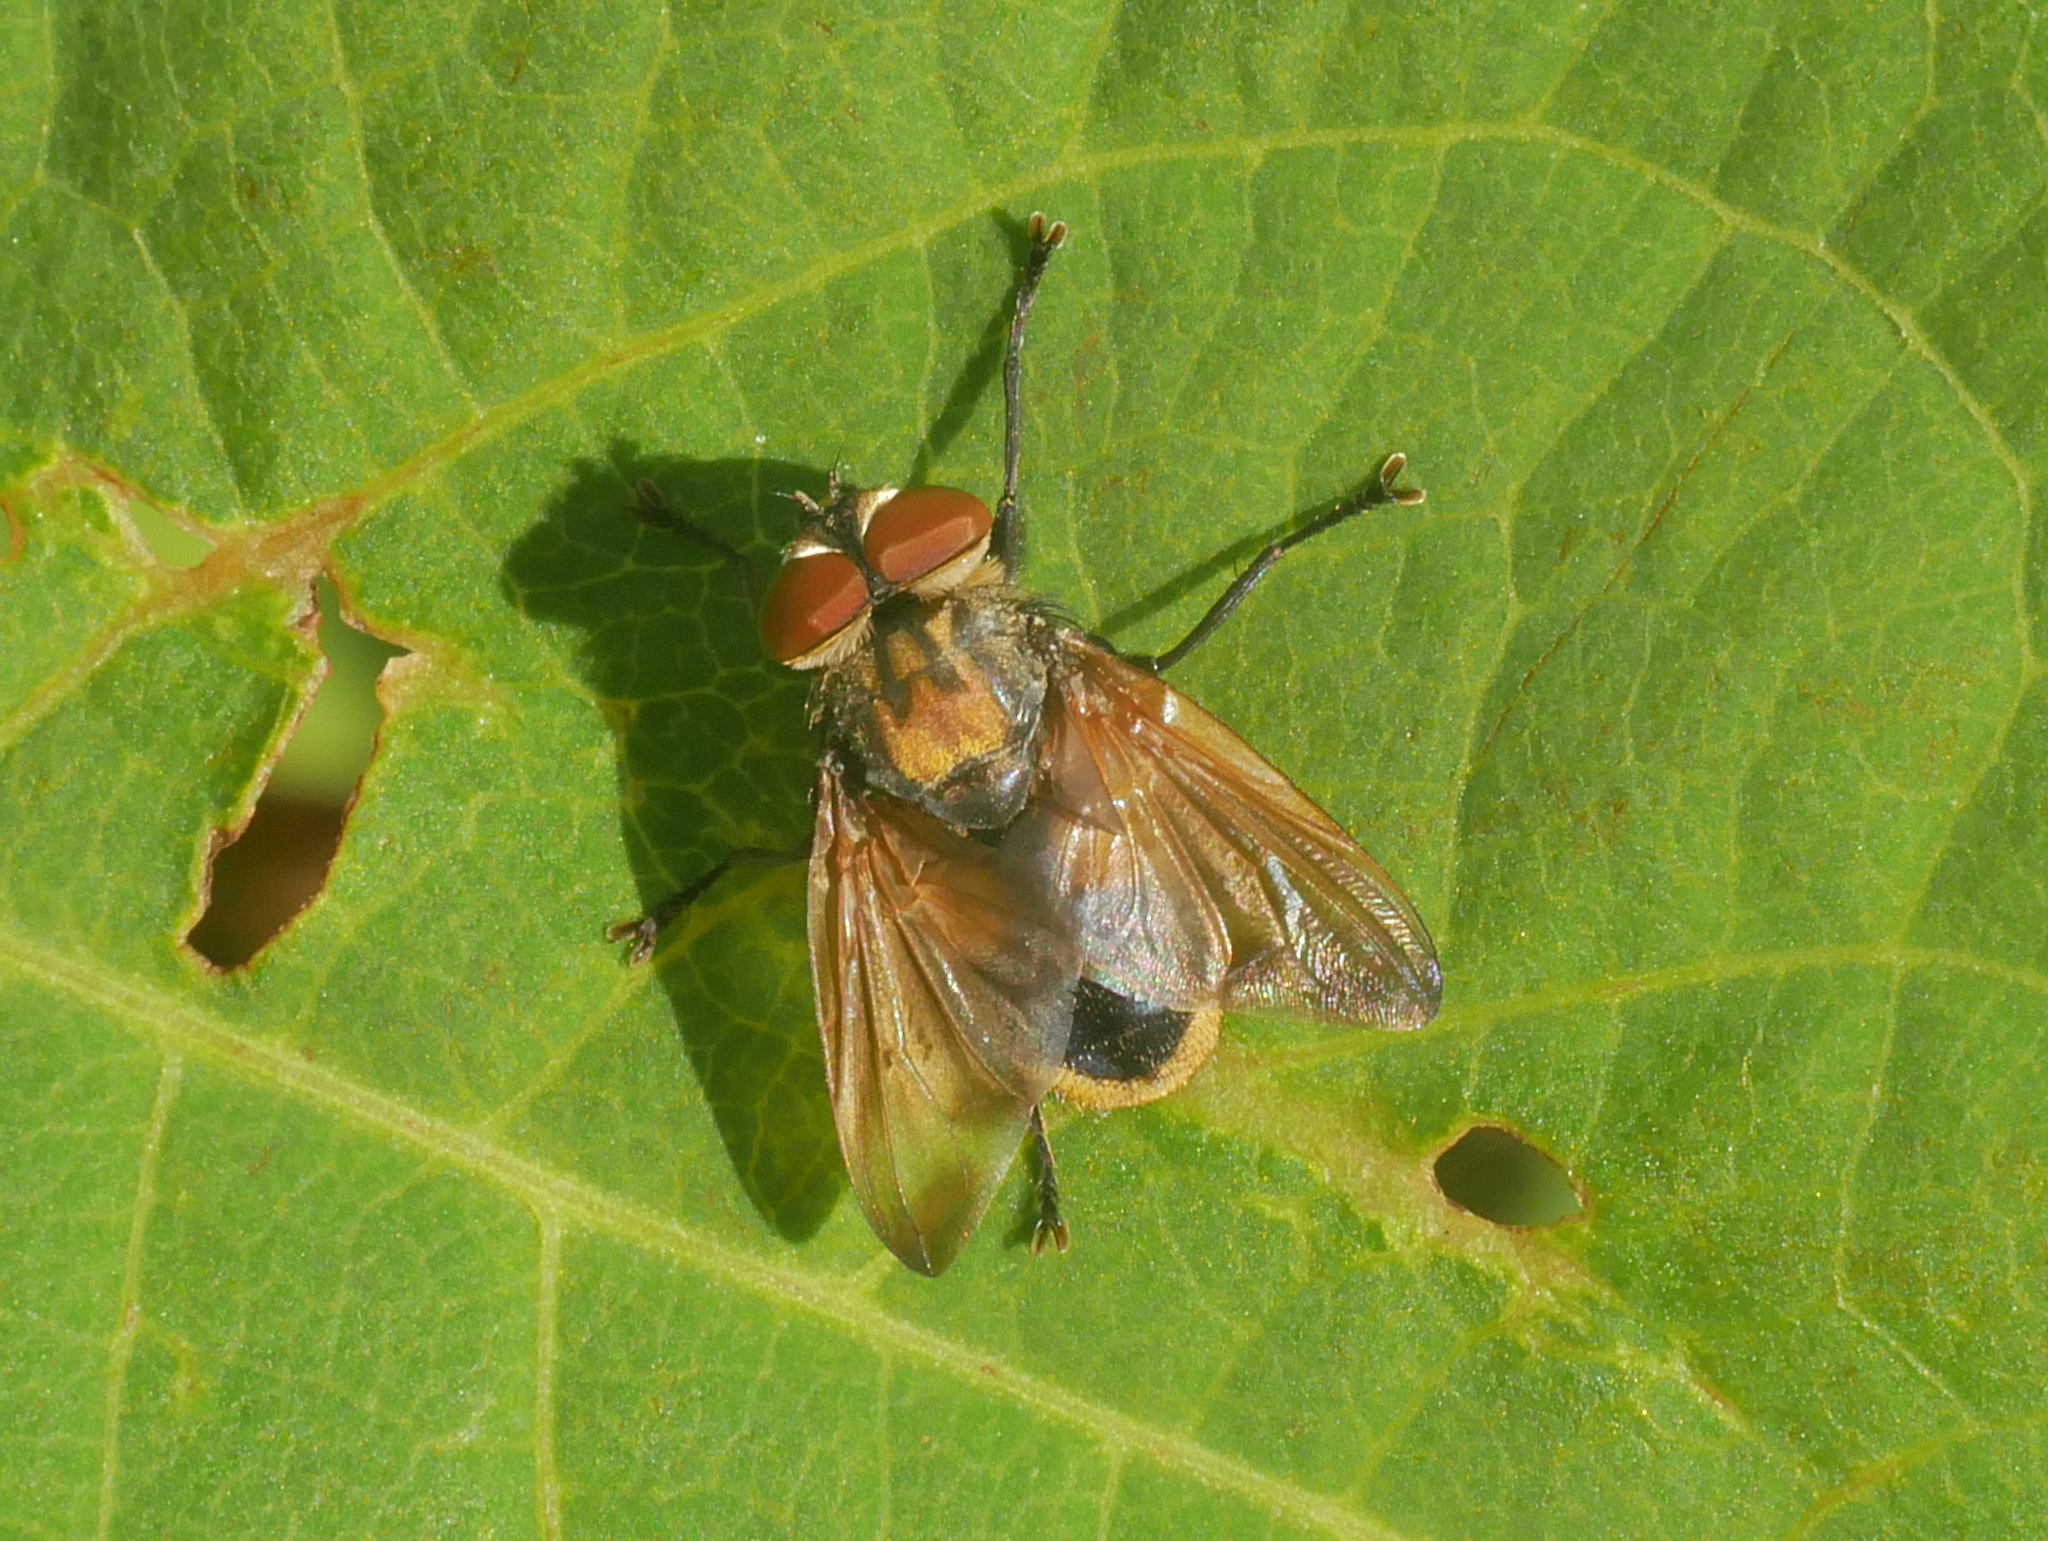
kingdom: Animalia
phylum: Arthropoda
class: Insecta
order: Diptera
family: Tachinidae
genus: Phasia
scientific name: Phasia aurigera
